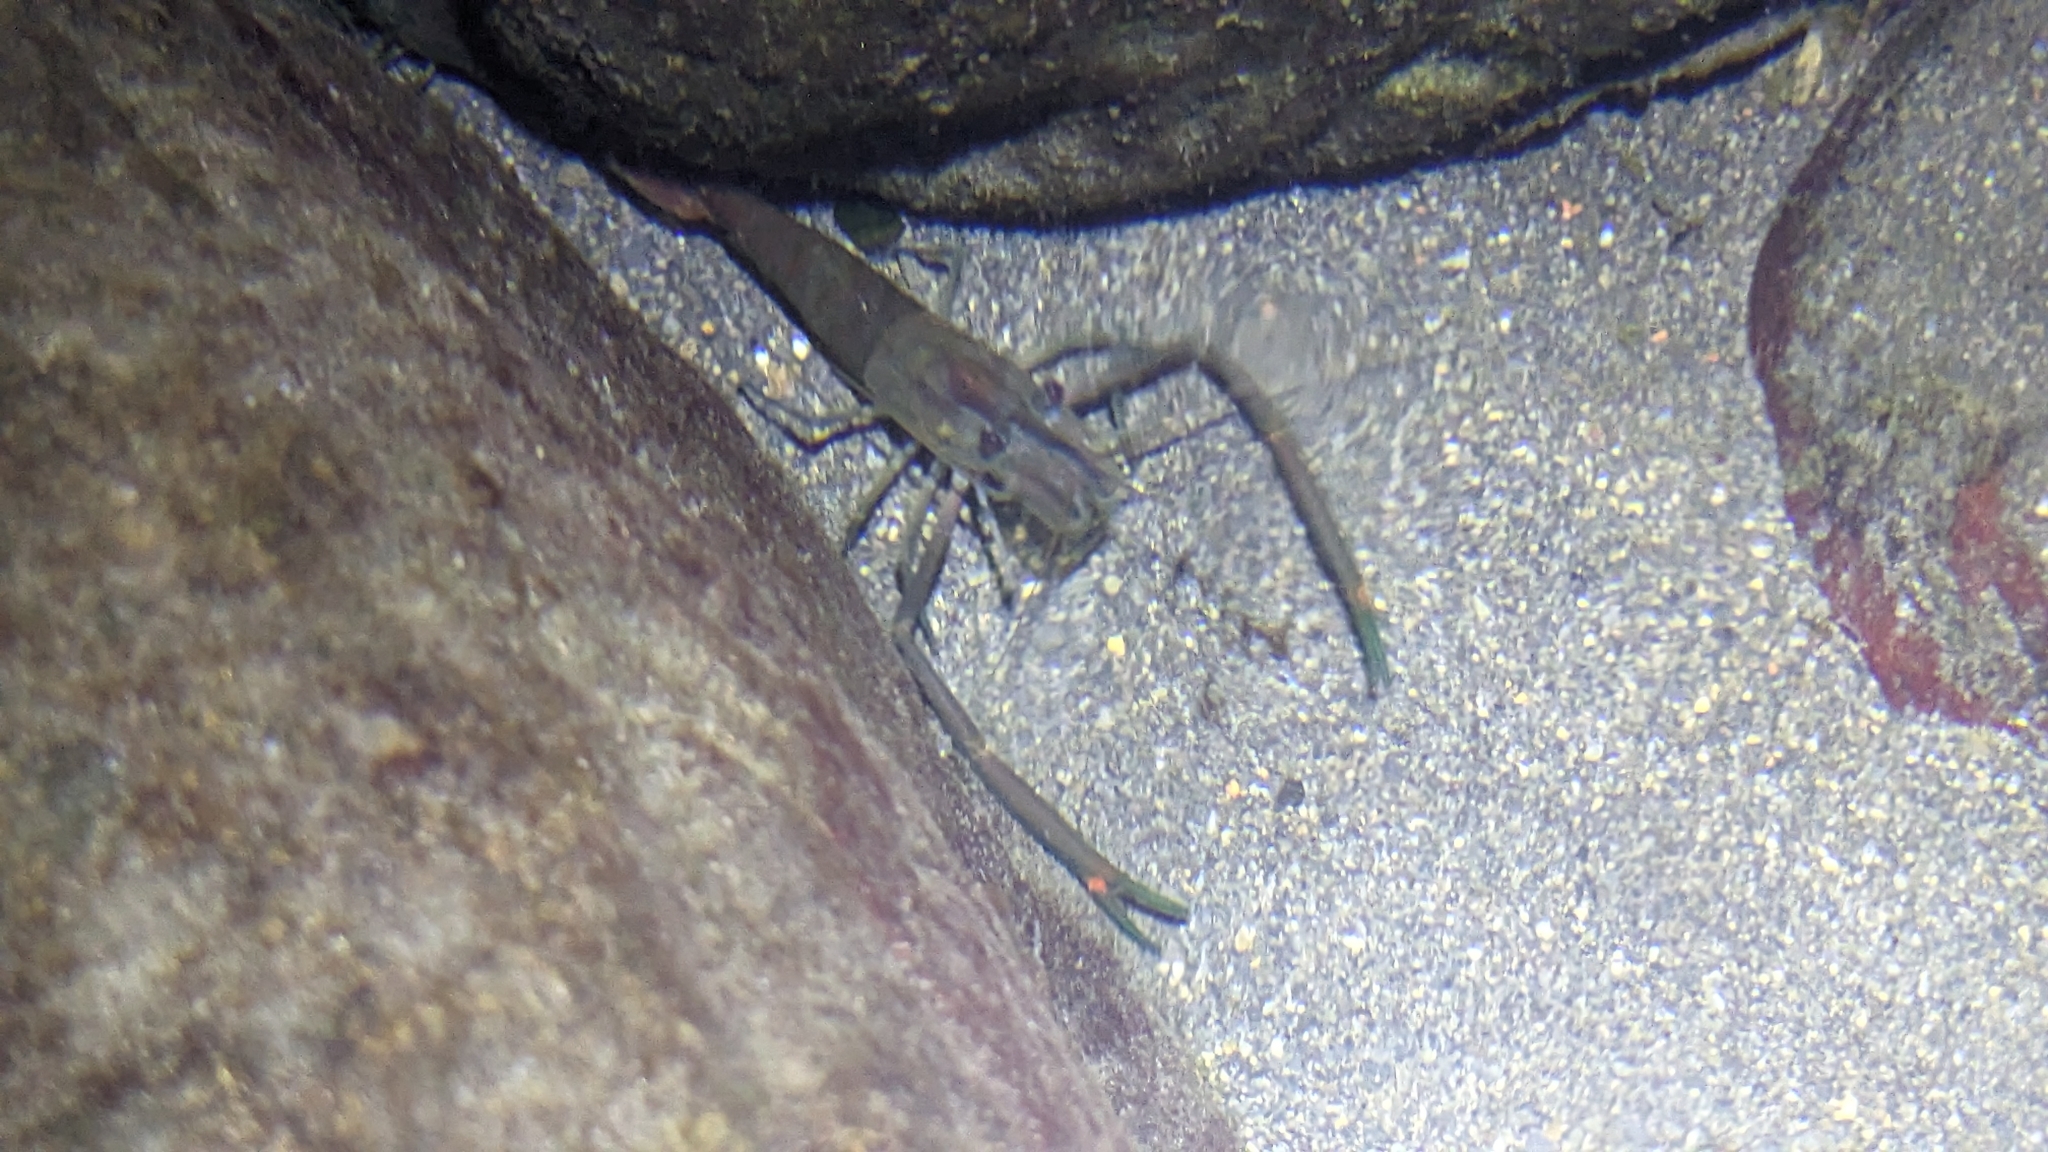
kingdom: Animalia
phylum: Arthropoda
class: Malacostraca
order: Decapoda
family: Palaemonidae
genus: Macrobrachium
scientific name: Macrobrachium asperulum
